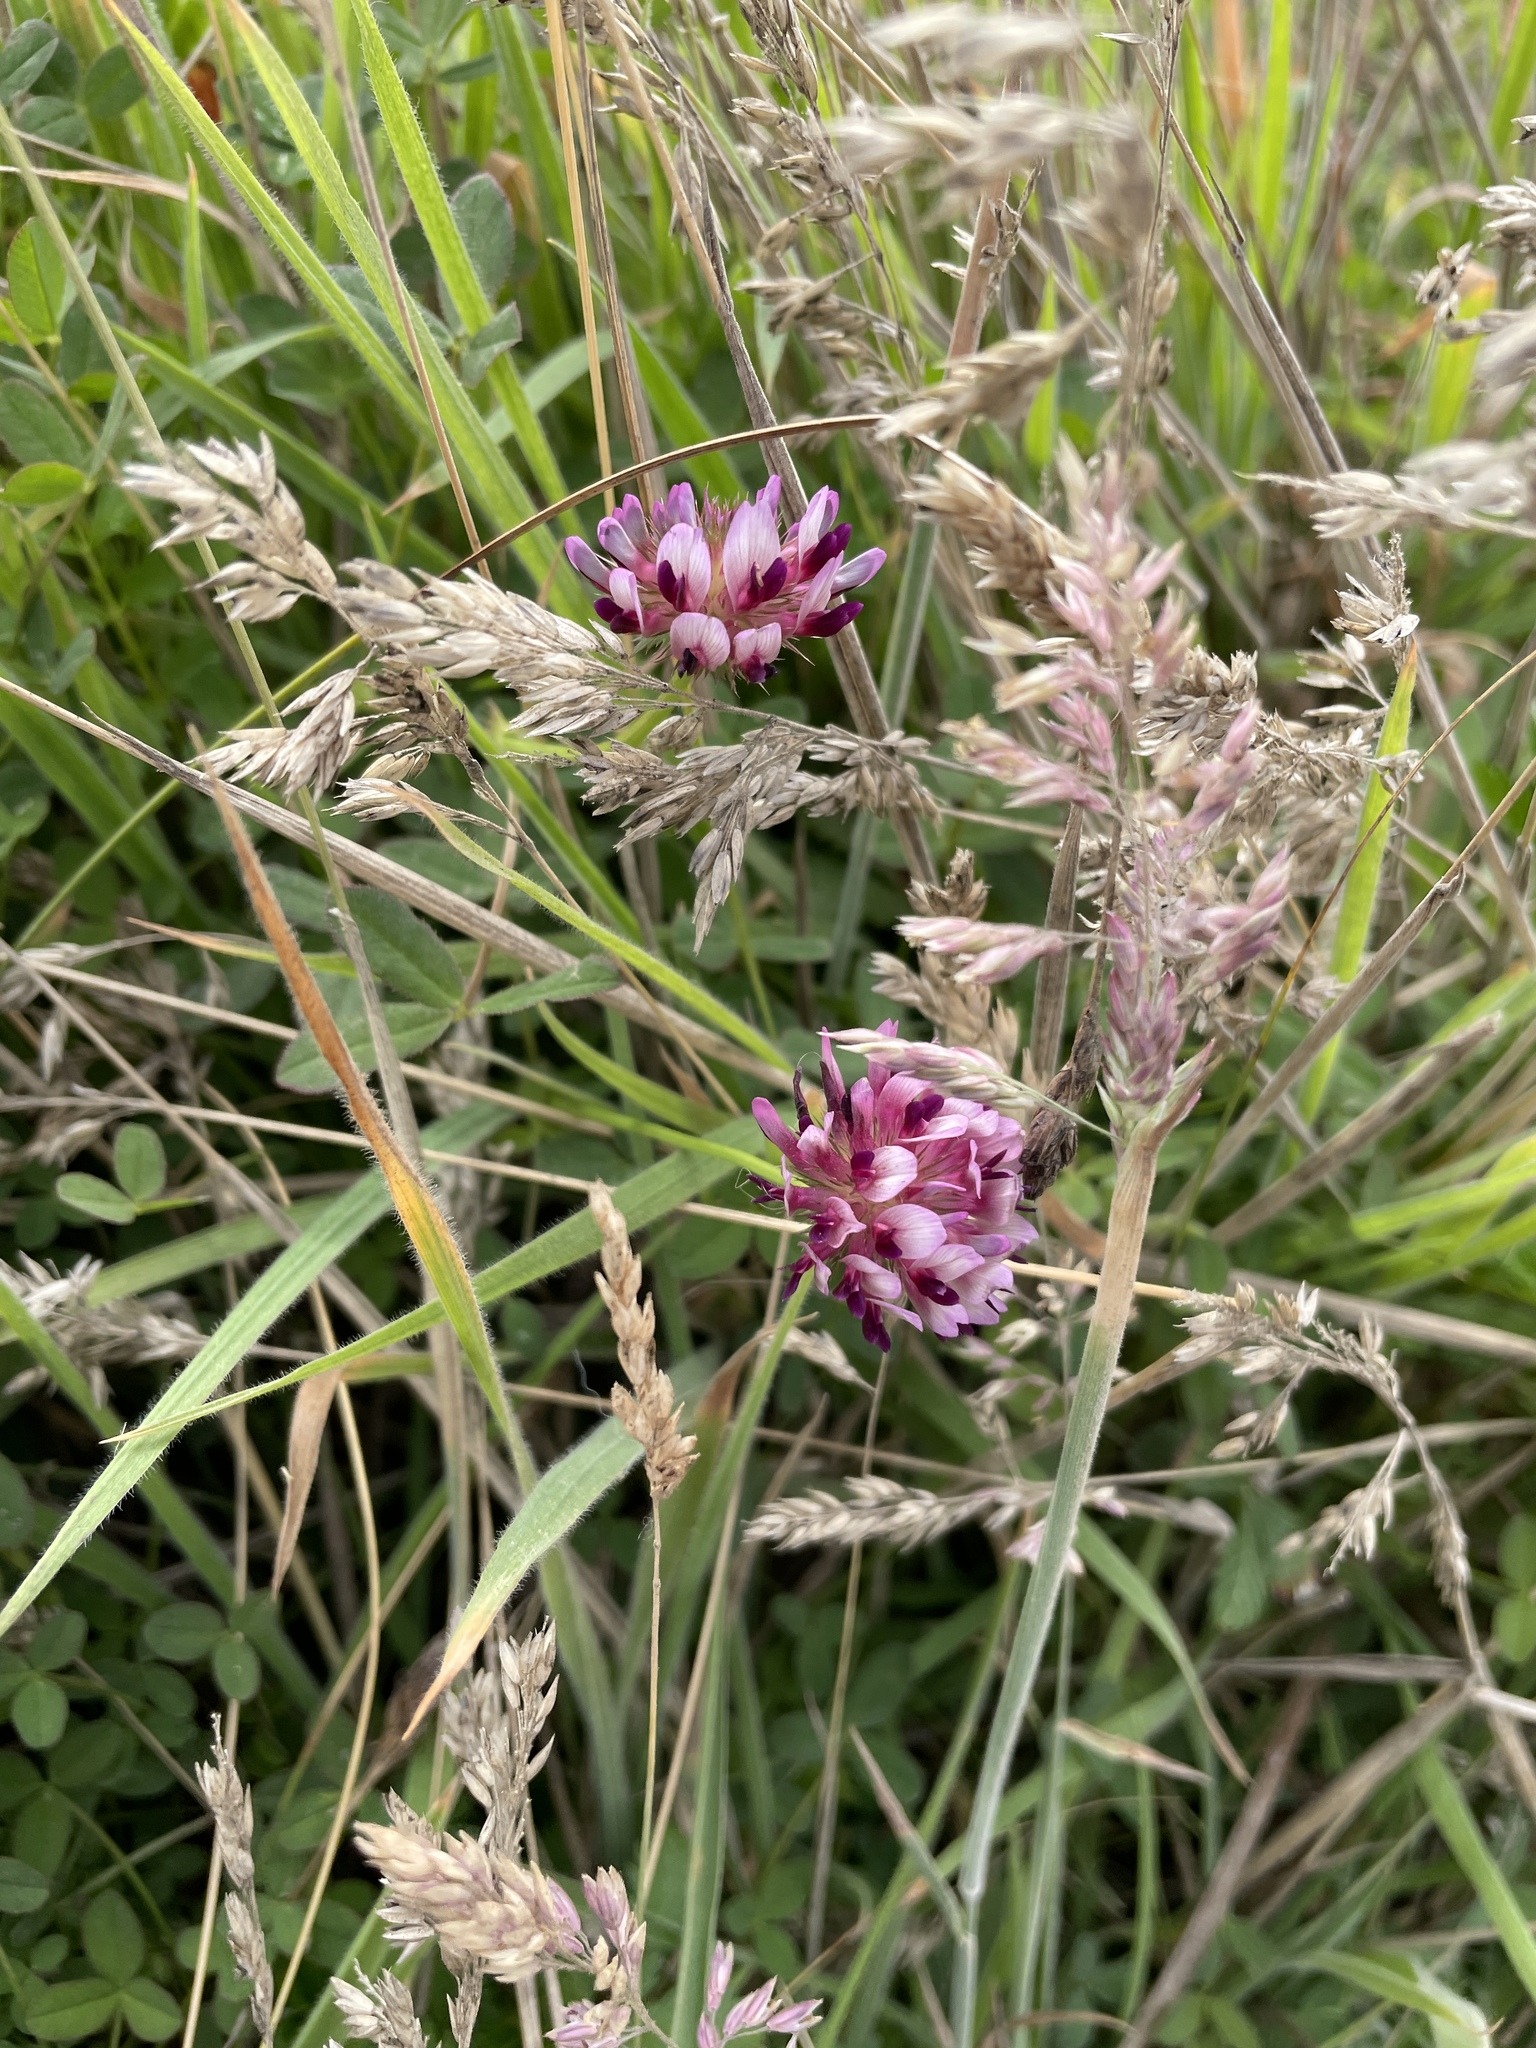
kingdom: Plantae
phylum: Tracheophyta
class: Magnoliopsida
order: Fabales
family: Fabaceae
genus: Trifolium
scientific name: Trifolium wormskioldii
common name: Springbank clover
